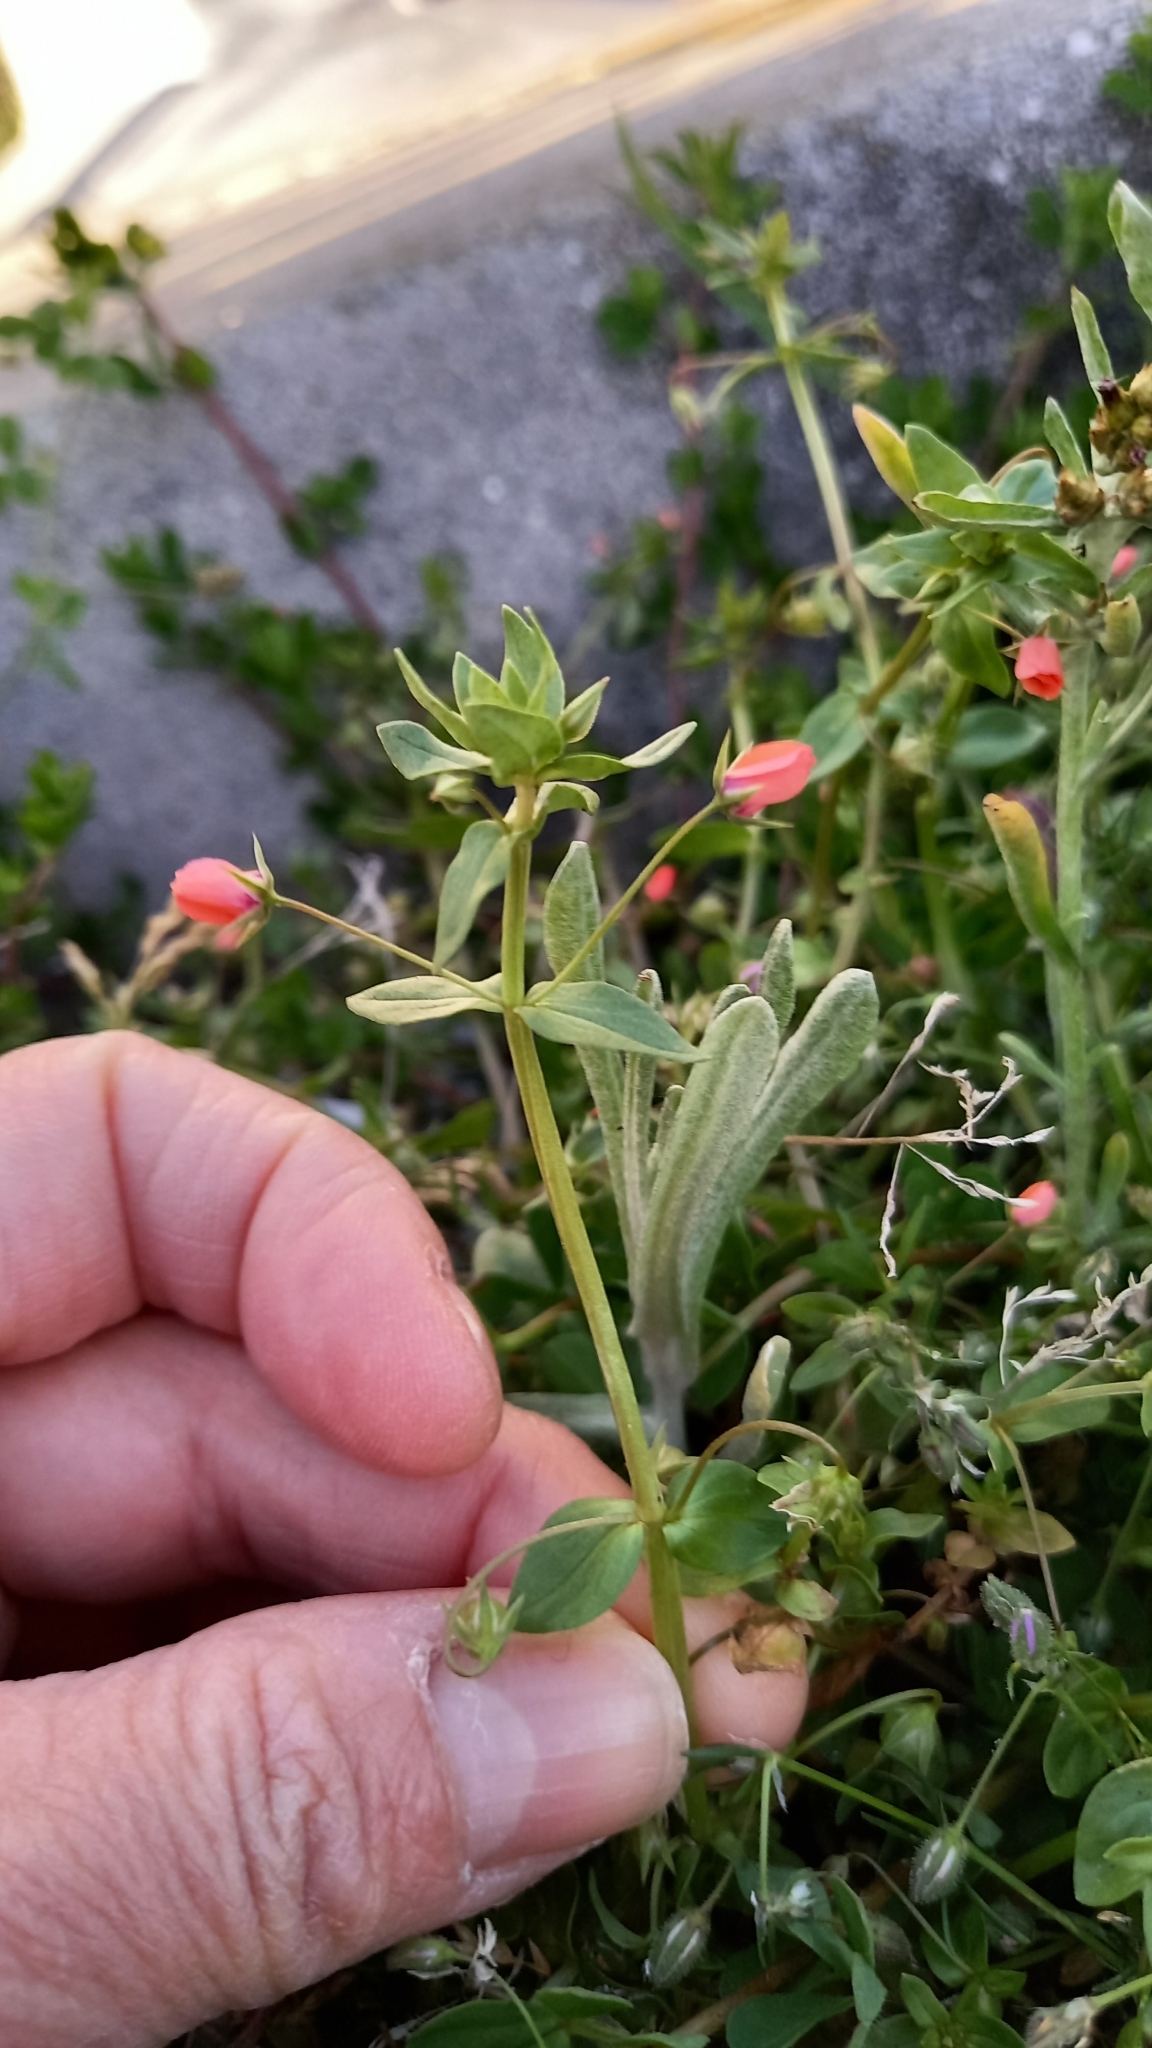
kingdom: Plantae
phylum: Tracheophyta
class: Magnoliopsida
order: Ericales
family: Primulaceae
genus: Lysimachia
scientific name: Lysimachia arvensis
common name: Scarlet pimpernel
